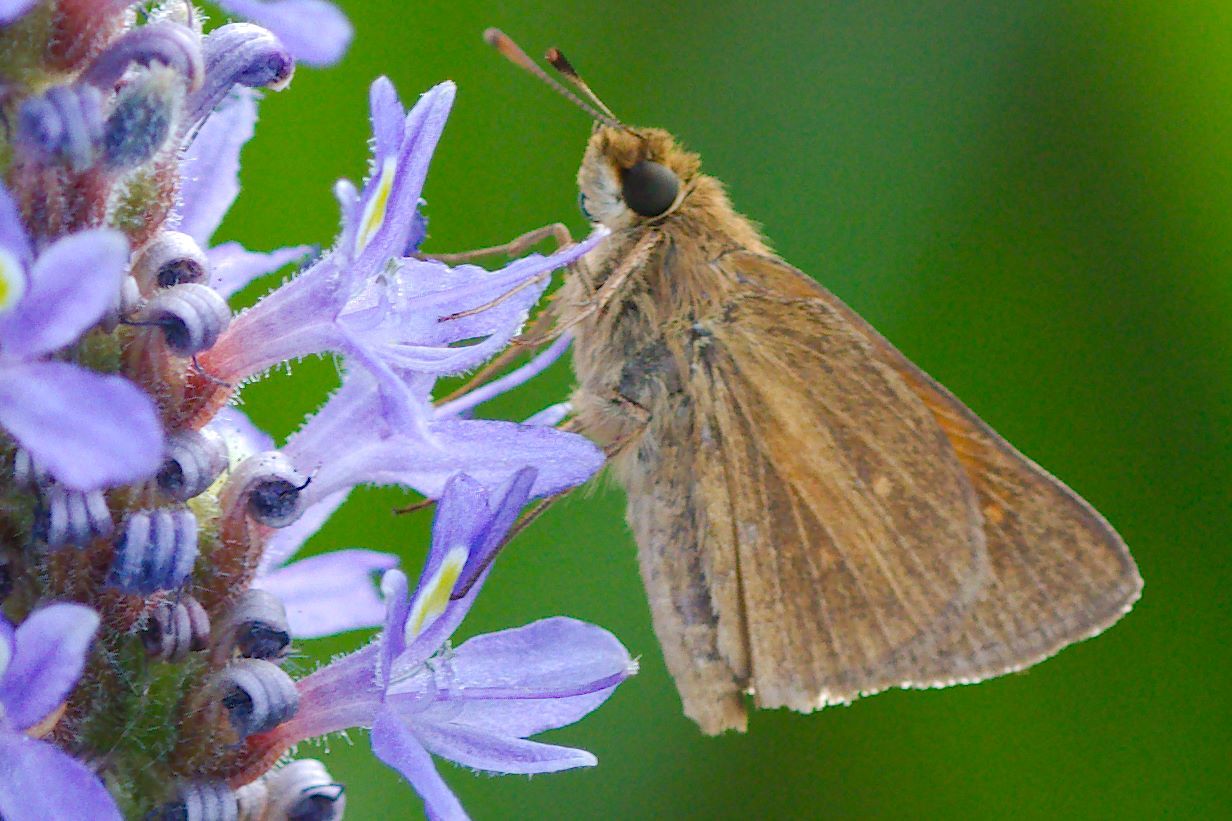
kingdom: Animalia
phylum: Arthropoda
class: Insecta
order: Lepidoptera
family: Hesperiidae
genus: Poanes
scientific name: Poanes aaroni
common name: Aaron's skipper
